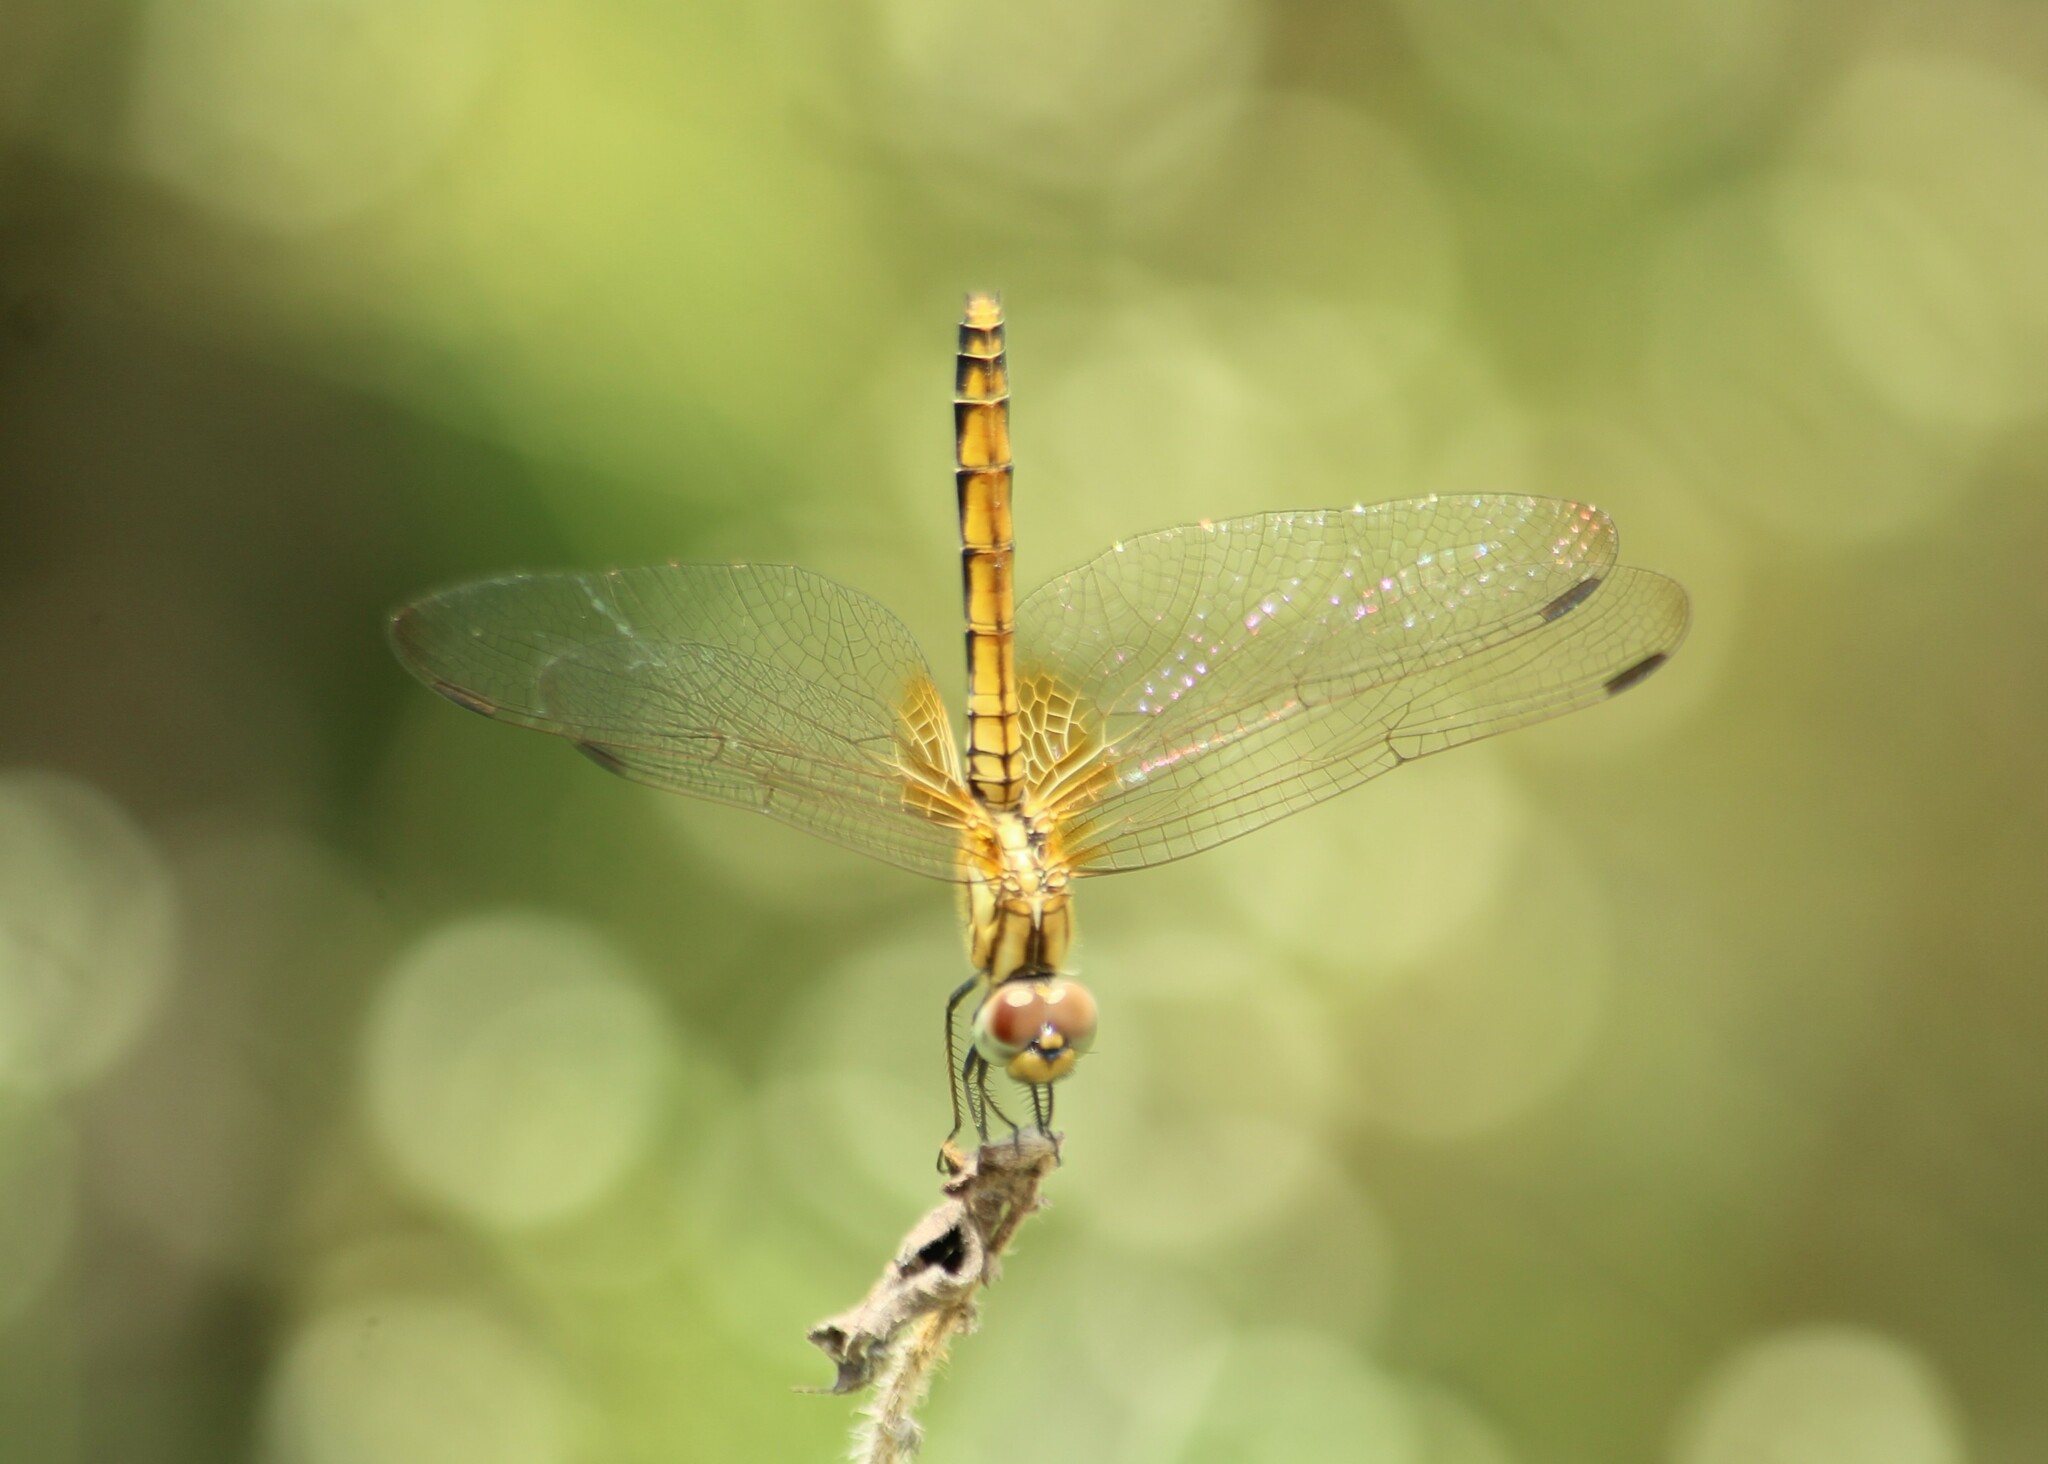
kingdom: Animalia
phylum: Arthropoda
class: Insecta
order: Odonata
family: Libellulidae
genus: Trithemis
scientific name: Trithemis aurora
